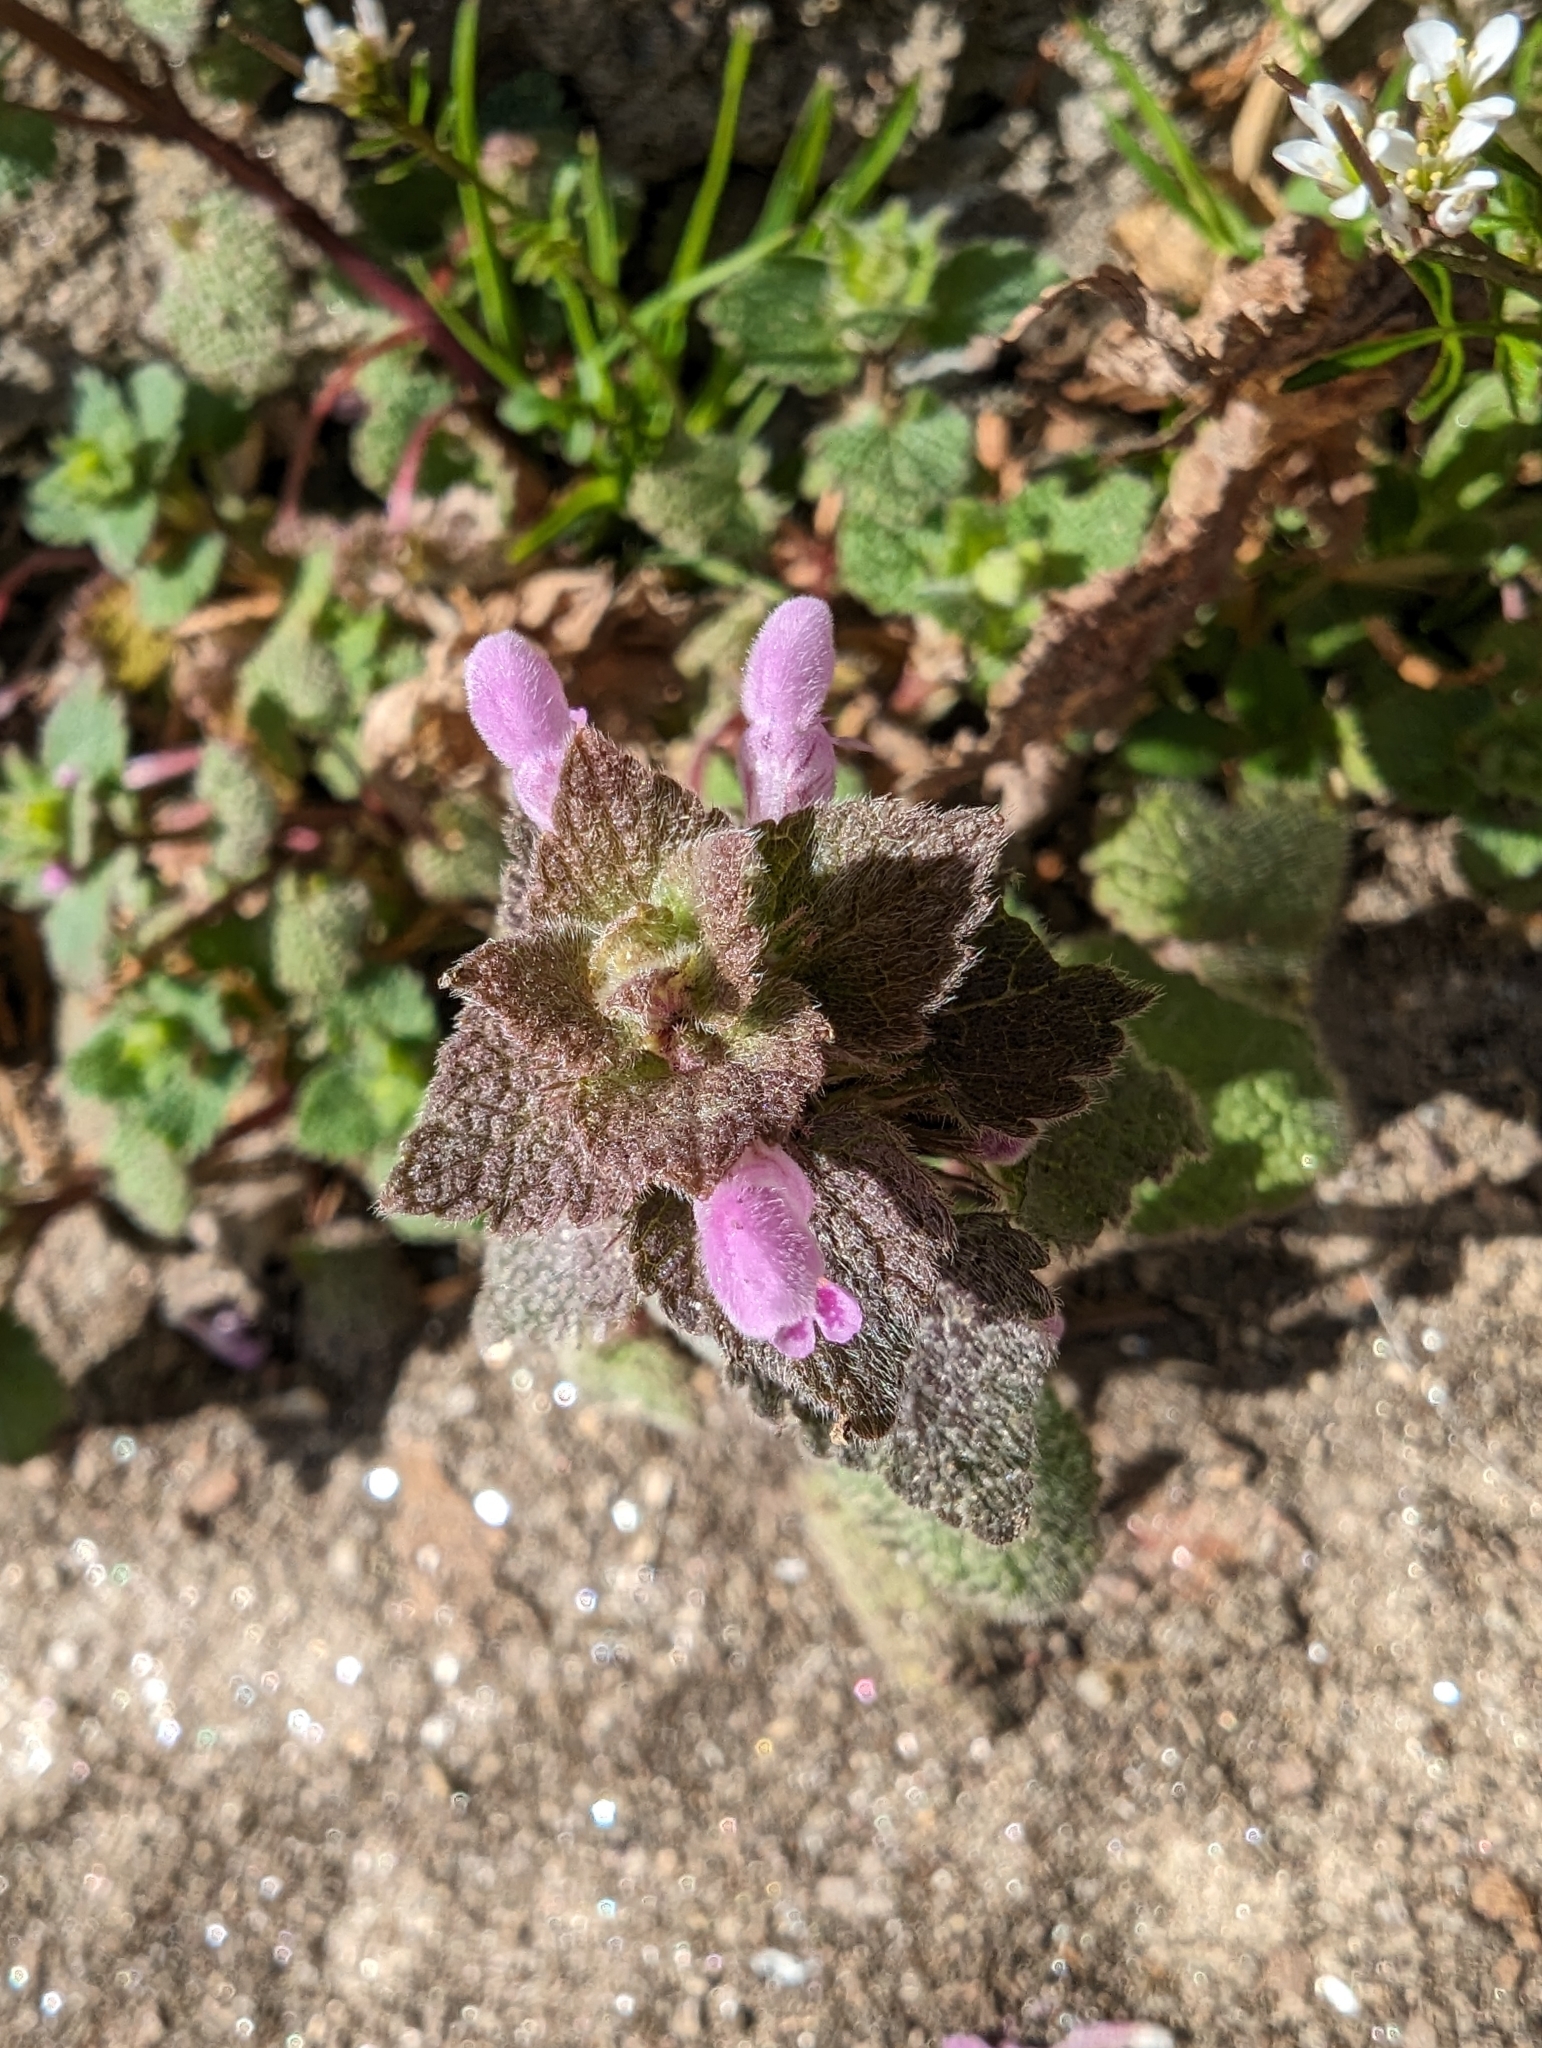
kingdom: Plantae
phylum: Tracheophyta
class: Magnoliopsida
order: Lamiales
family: Lamiaceae
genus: Lamium
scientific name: Lamium purpureum
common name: Red dead-nettle
